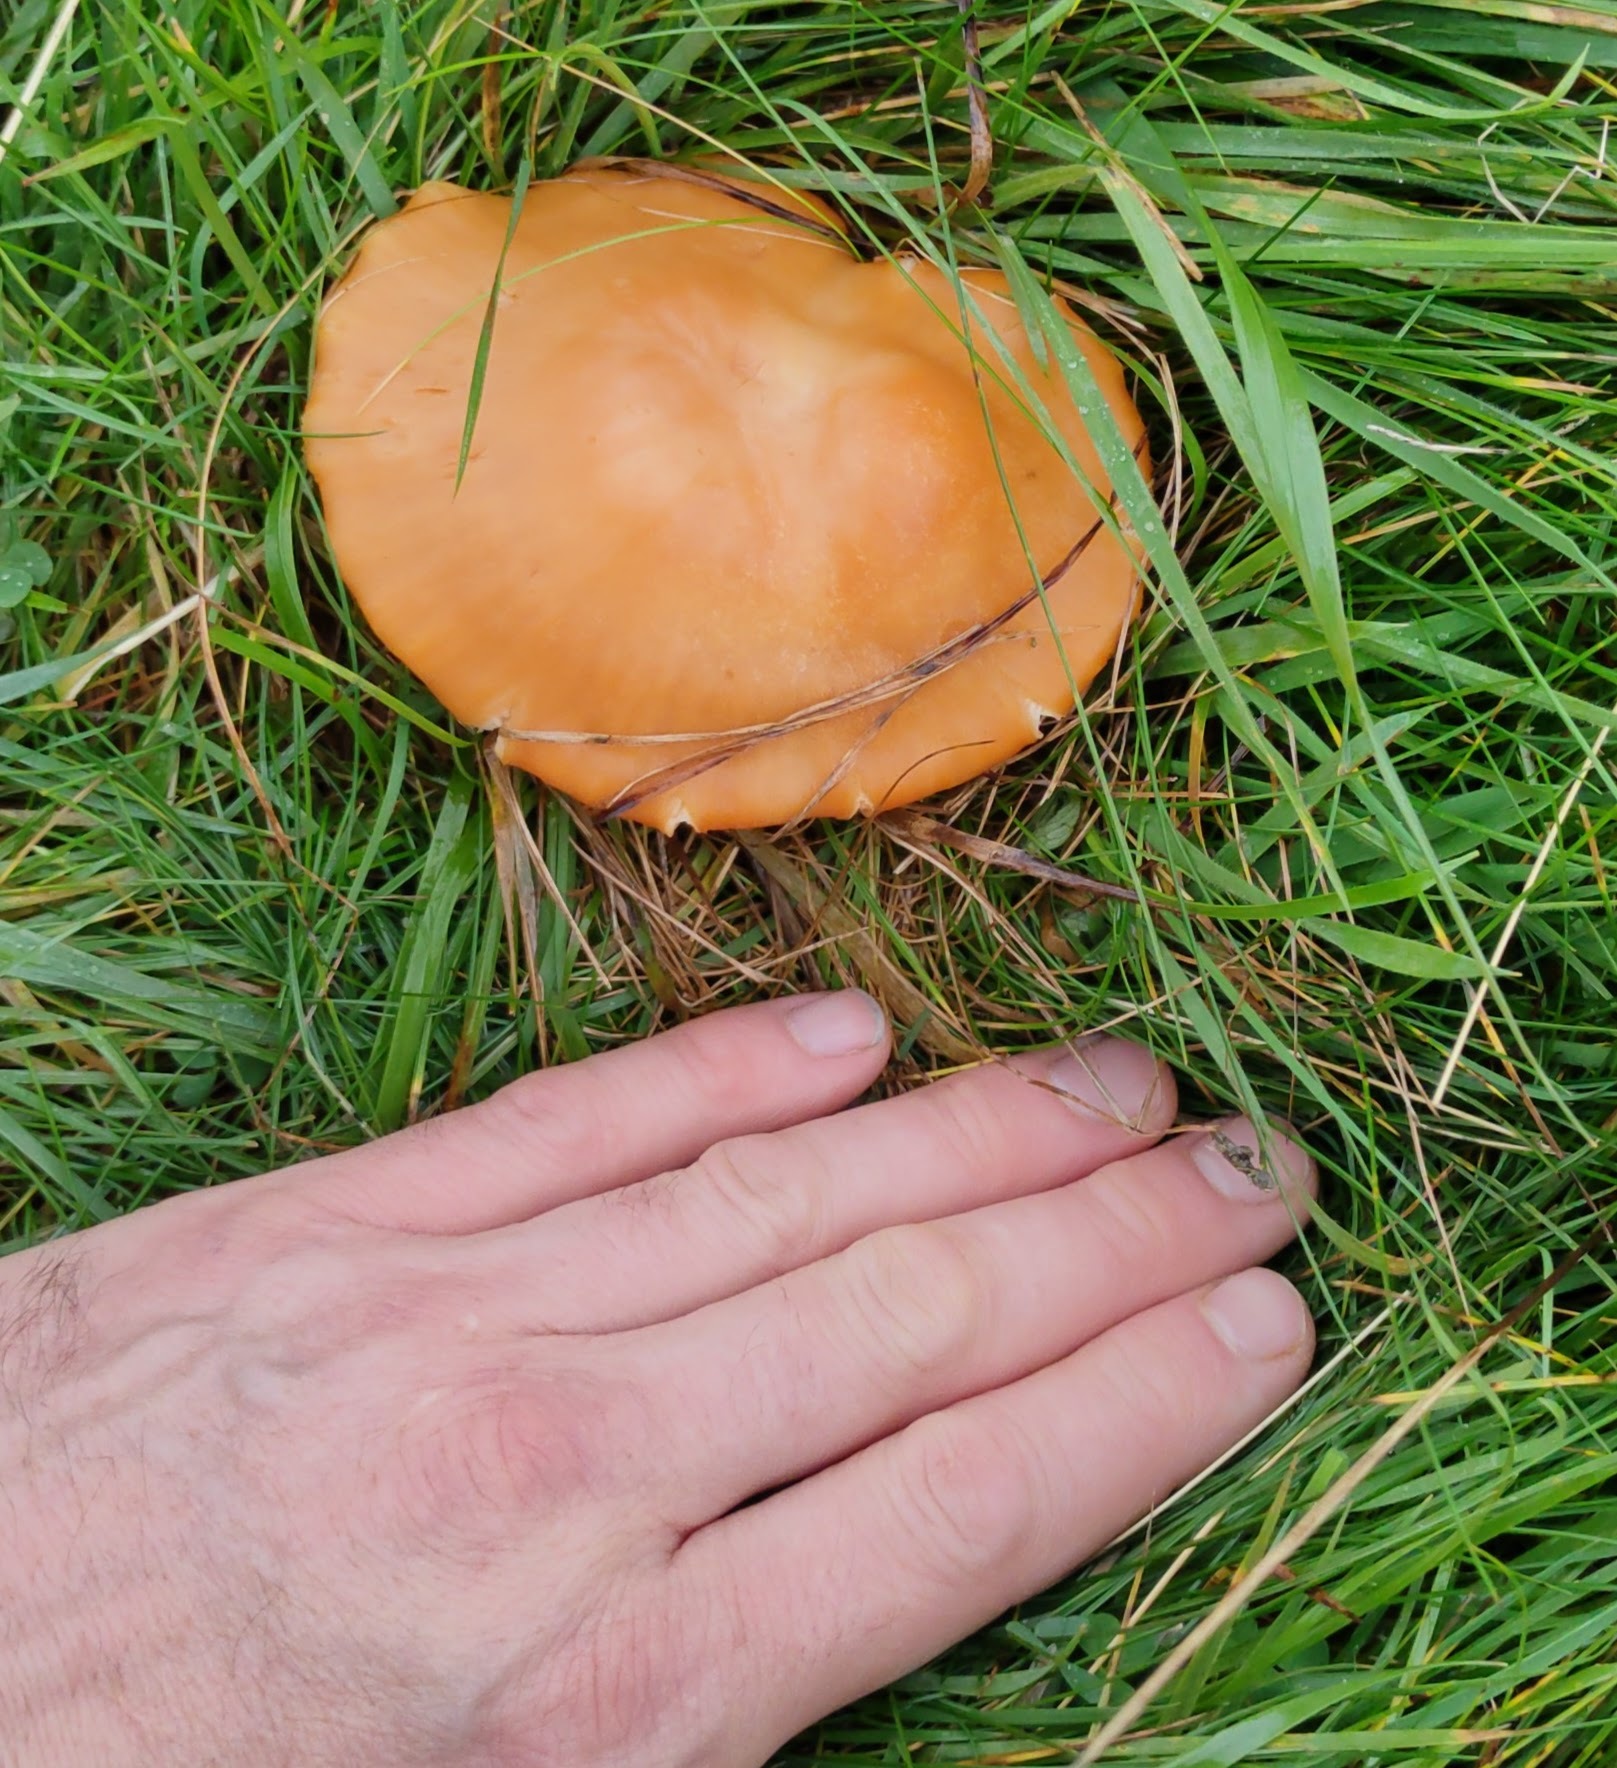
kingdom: Fungi
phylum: Basidiomycota
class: Agaricomycetes
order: Agaricales
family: Hygrophoraceae
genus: Cuphophyllus
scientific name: Cuphophyllus pratensis
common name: Meadow waxcap
